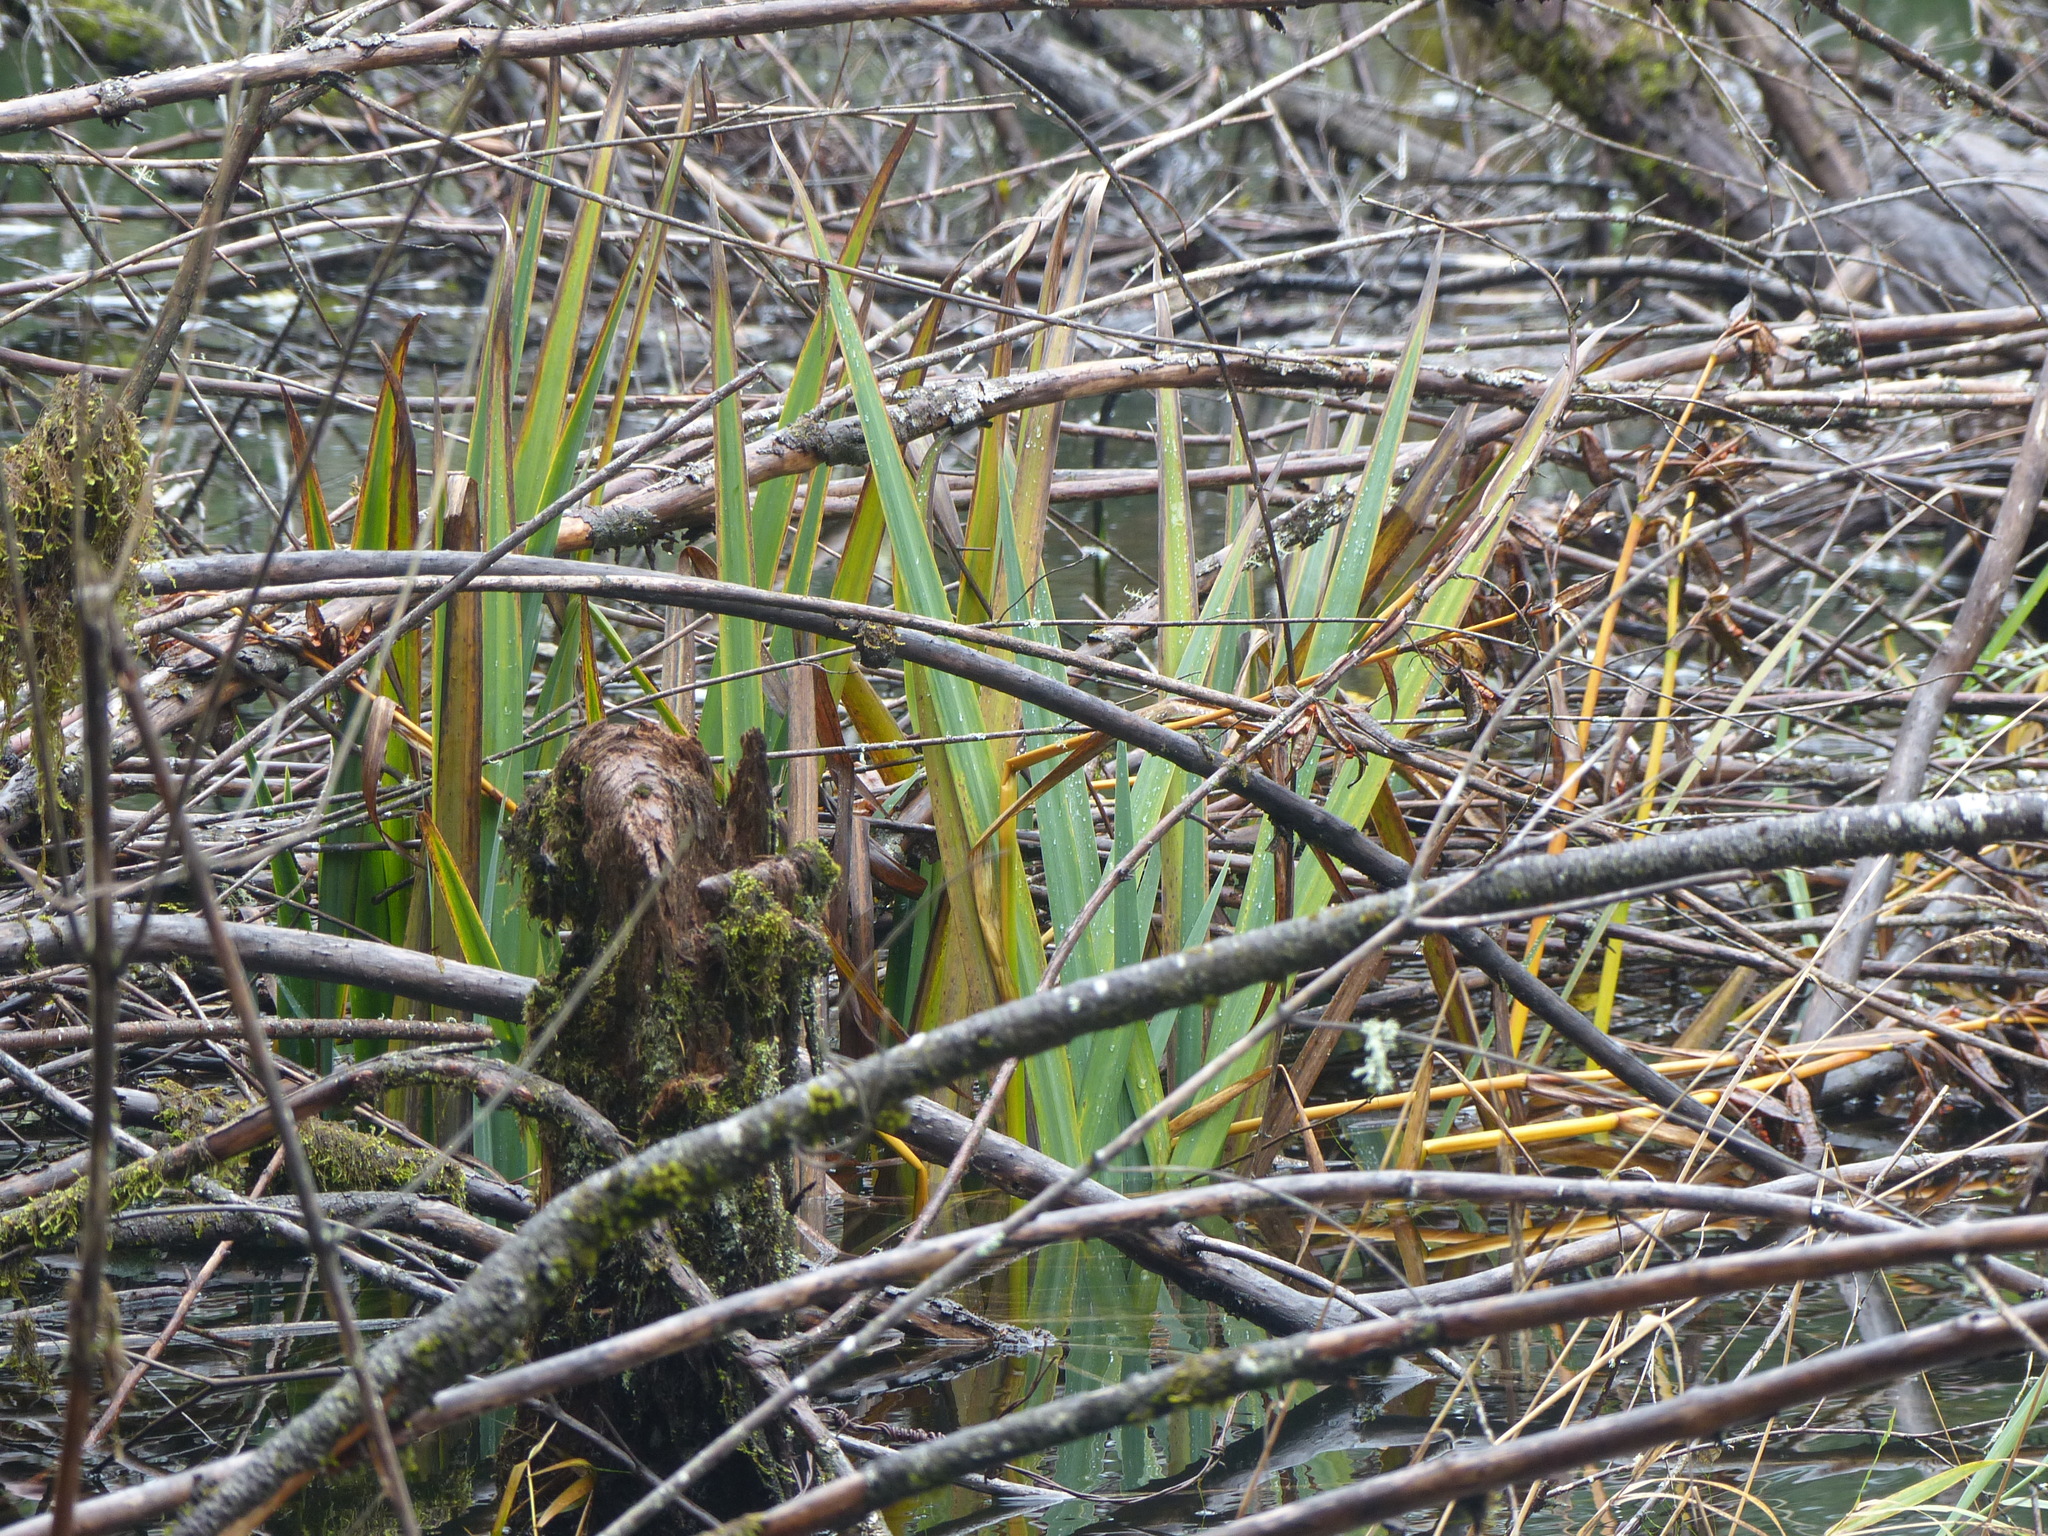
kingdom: Plantae
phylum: Tracheophyta
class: Liliopsida
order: Asparagales
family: Iridaceae
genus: Iris
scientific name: Iris pseudacorus
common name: Yellow flag
